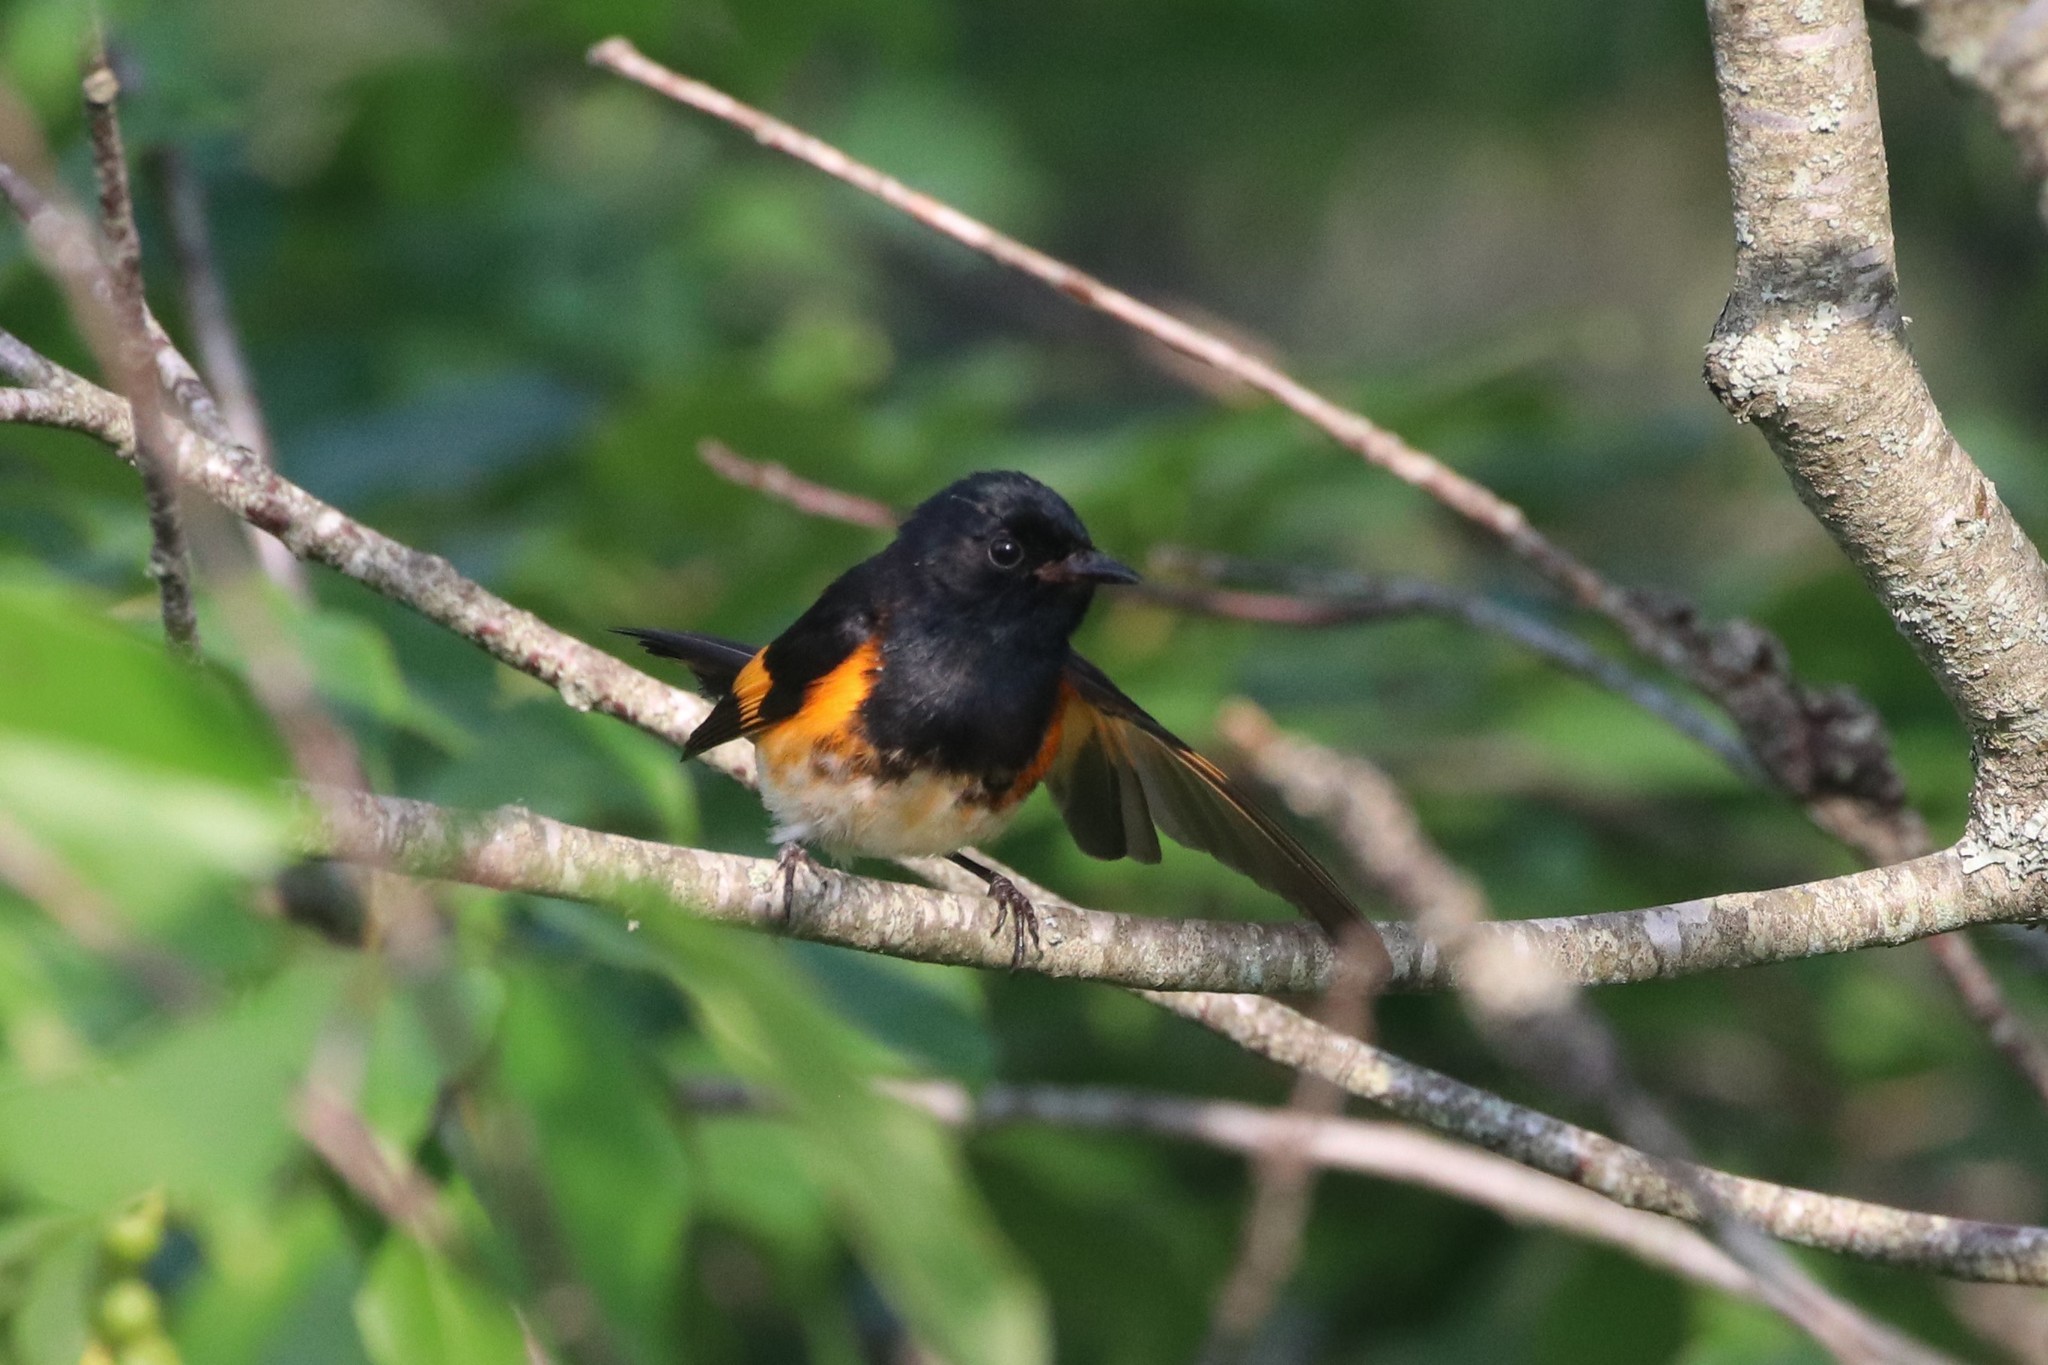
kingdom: Animalia
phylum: Chordata
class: Aves
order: Passeriformes
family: Parulidae
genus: Setophaga
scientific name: Setophaga ruticilla
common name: American redstart
